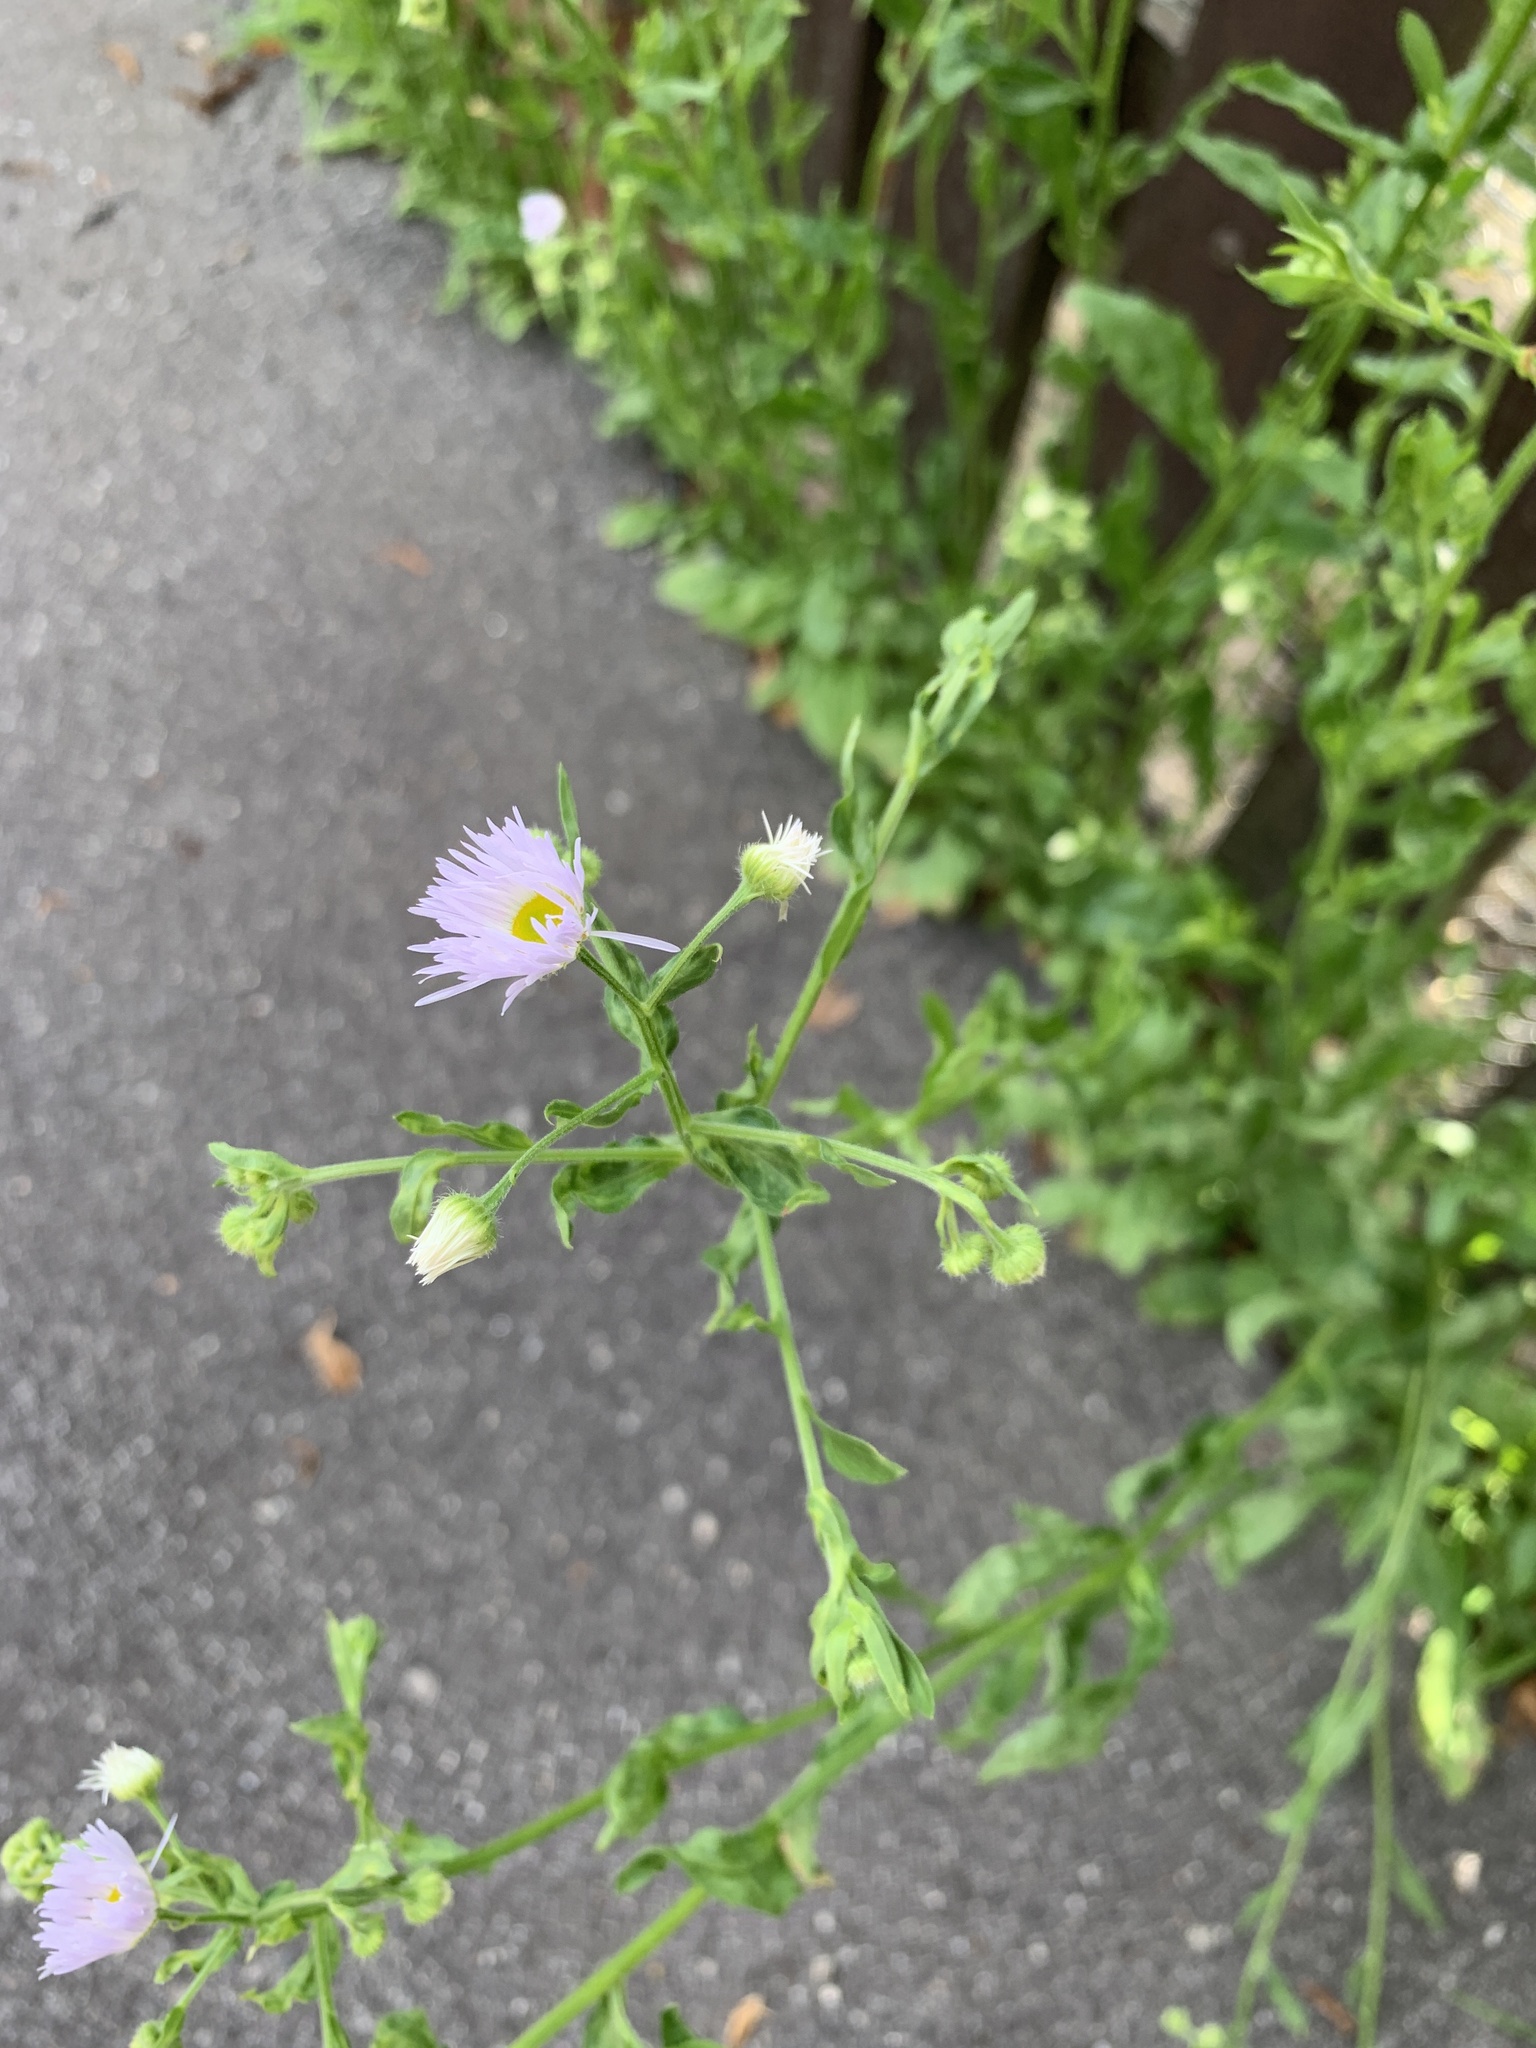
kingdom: Plantae
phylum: Tracheophyta
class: Magnoliopsida
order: Asterales
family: Asteraceae
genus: Erigeron
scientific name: Erigeron annuus
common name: Tall fleabane
